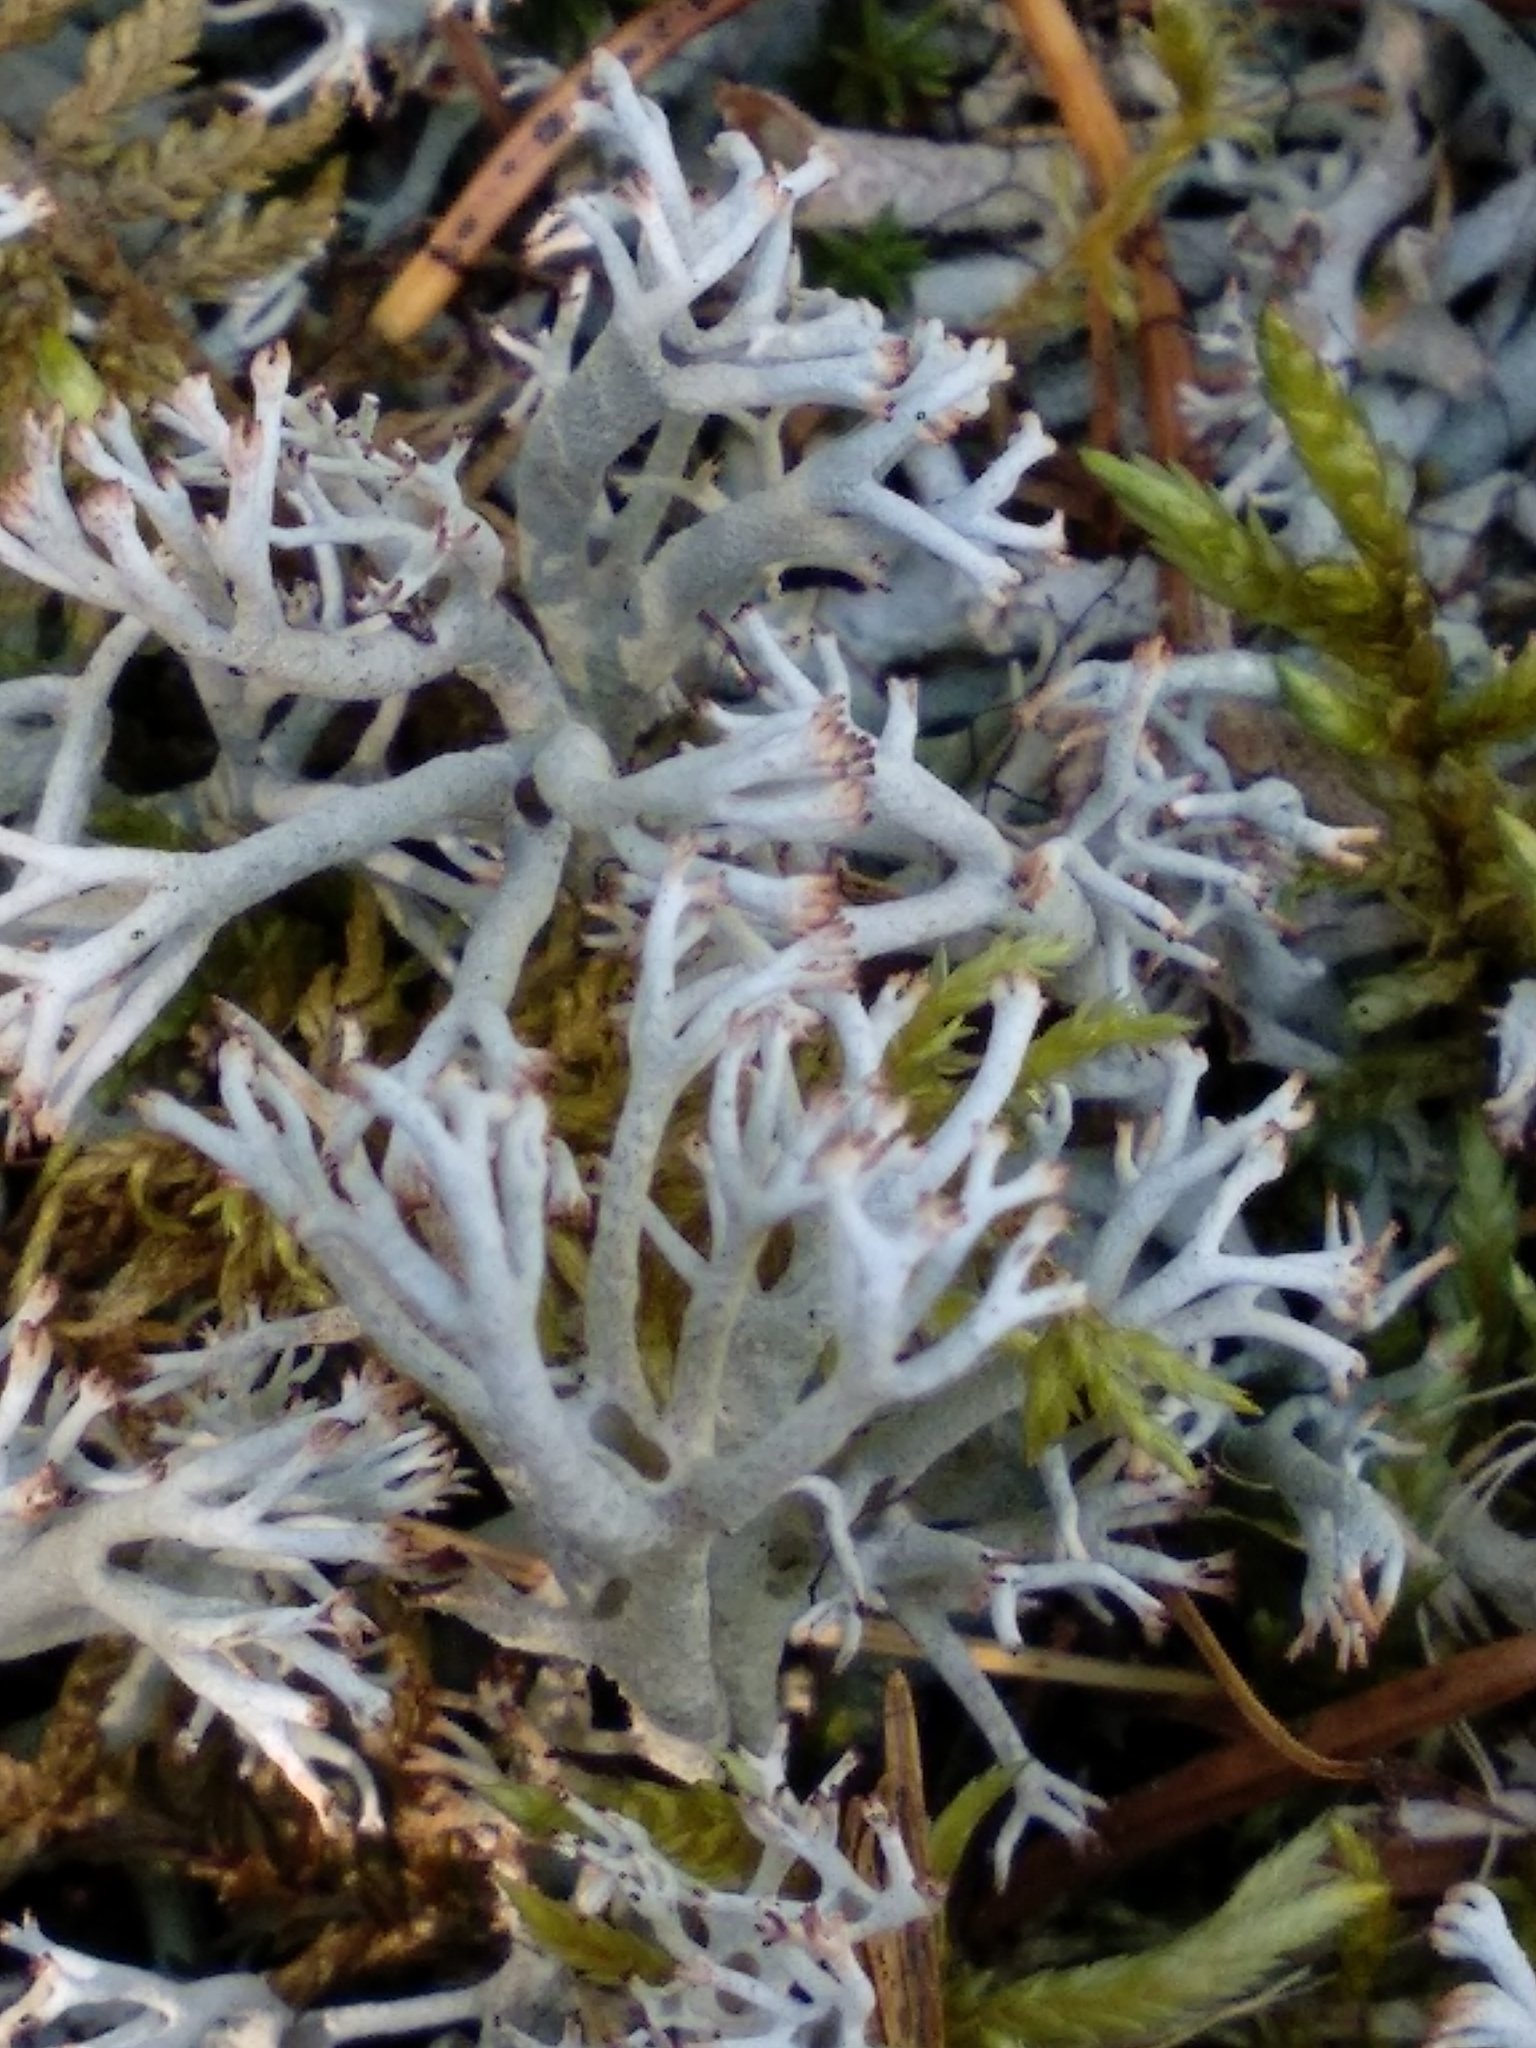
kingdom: Fungi
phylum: Ascomycota
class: Lecanoromycetes
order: Lecanorales
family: Cladoniaceae
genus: Cladonia
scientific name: Cladonia rangiferina
